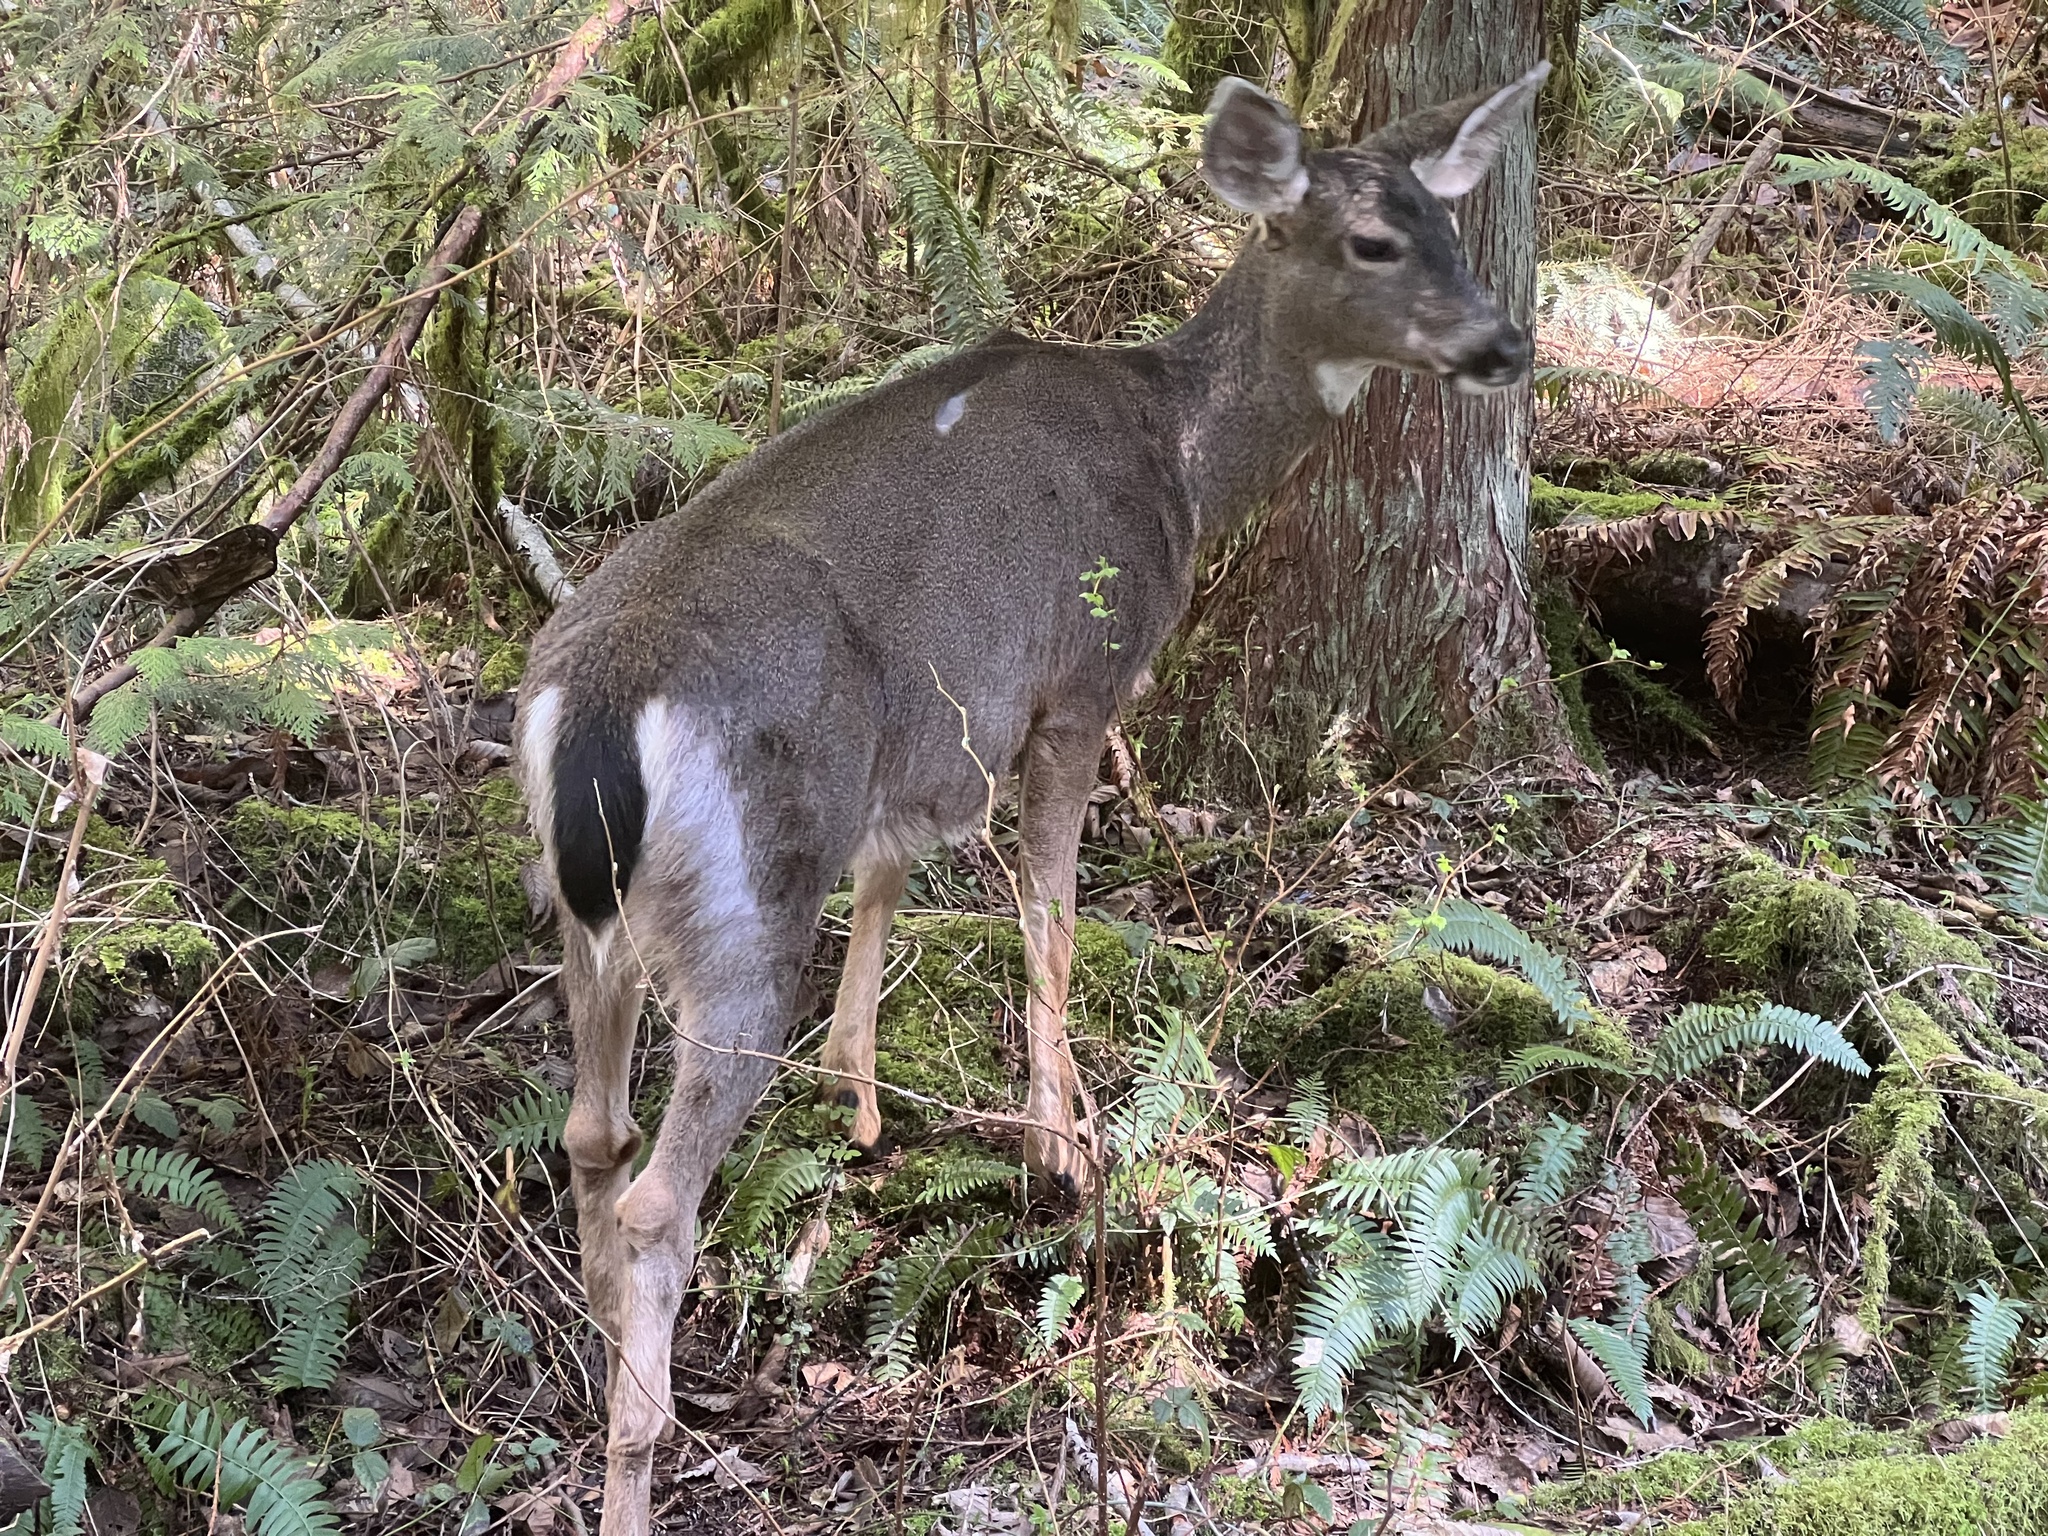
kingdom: Animalia
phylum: Chordata
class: Mammalia
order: Artiodactyla
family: Cervidae
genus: Odocoileus
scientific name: Odocoileus hemionus
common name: Mule deer
